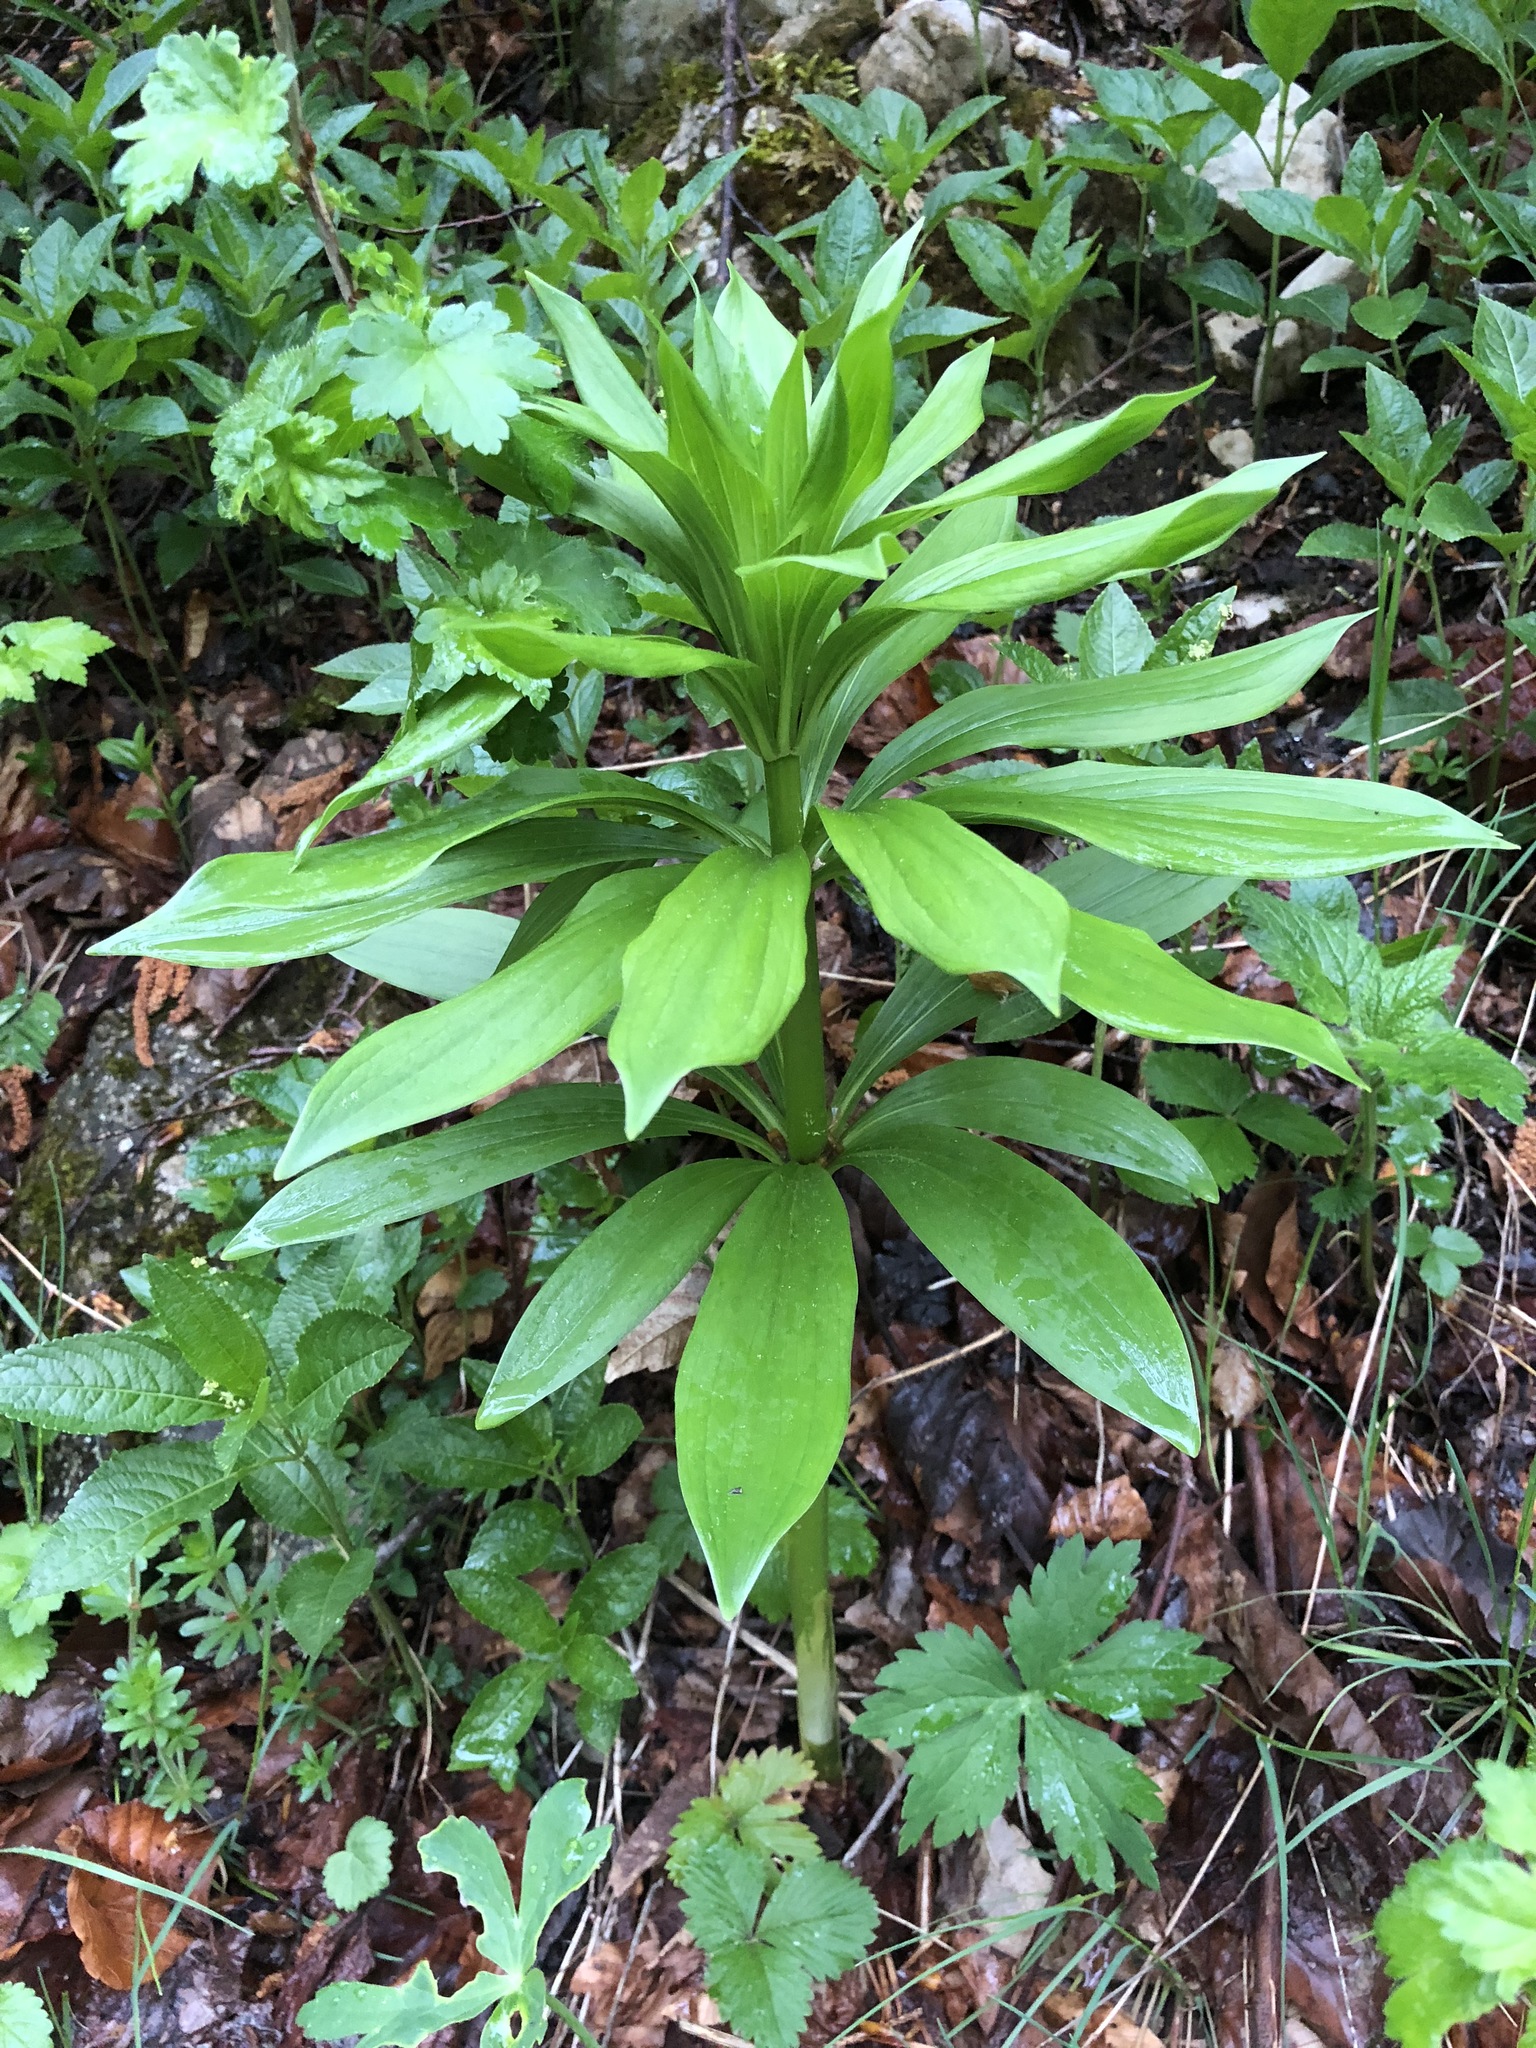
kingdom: Plantae
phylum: Tracheophyta
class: Liliopsida
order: Liliales
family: Liliaceae
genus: Lilium
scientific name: Lilium martagon
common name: Martagon lily
